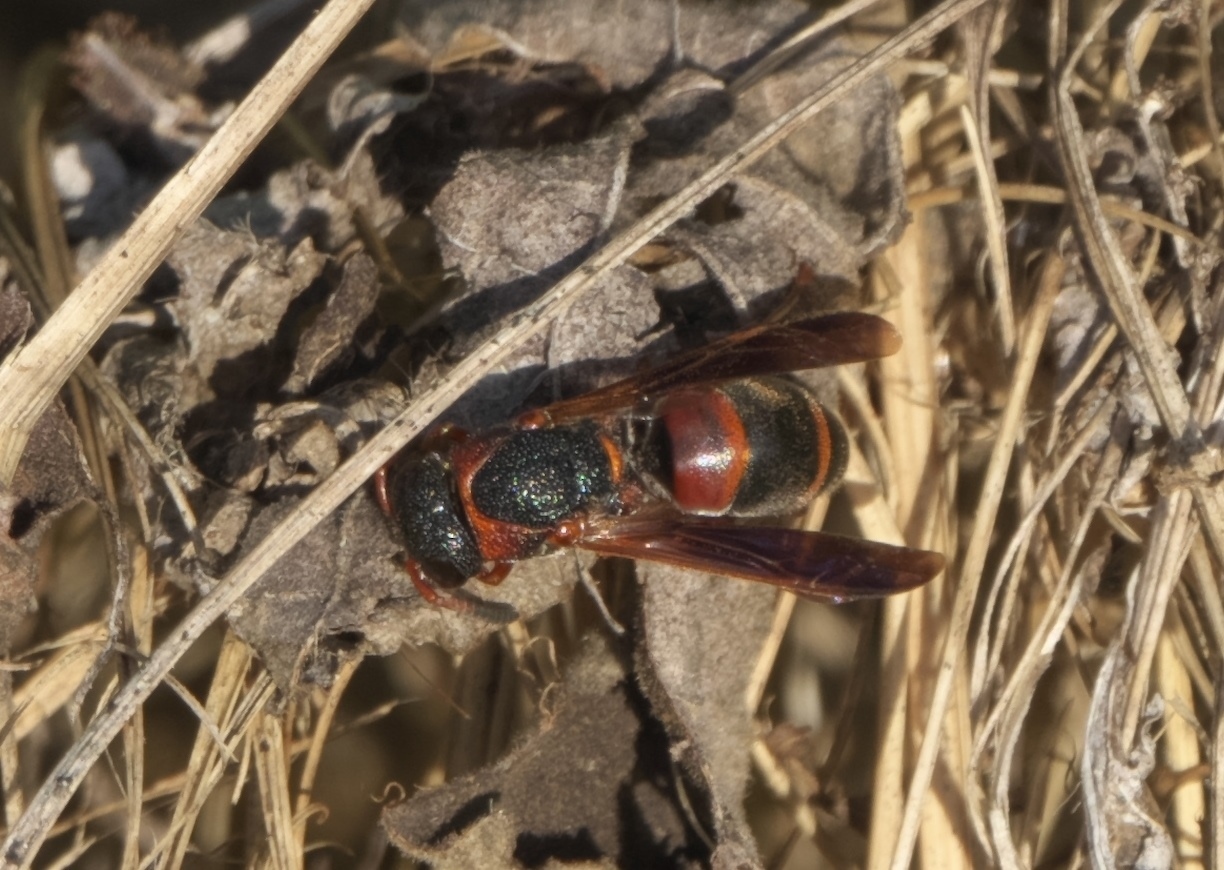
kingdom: Animalia
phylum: Arthropoda
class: Insecta
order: Hymenoptera
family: Eumenidae
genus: Pachodynerus
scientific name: Pachodynerus erynnis
